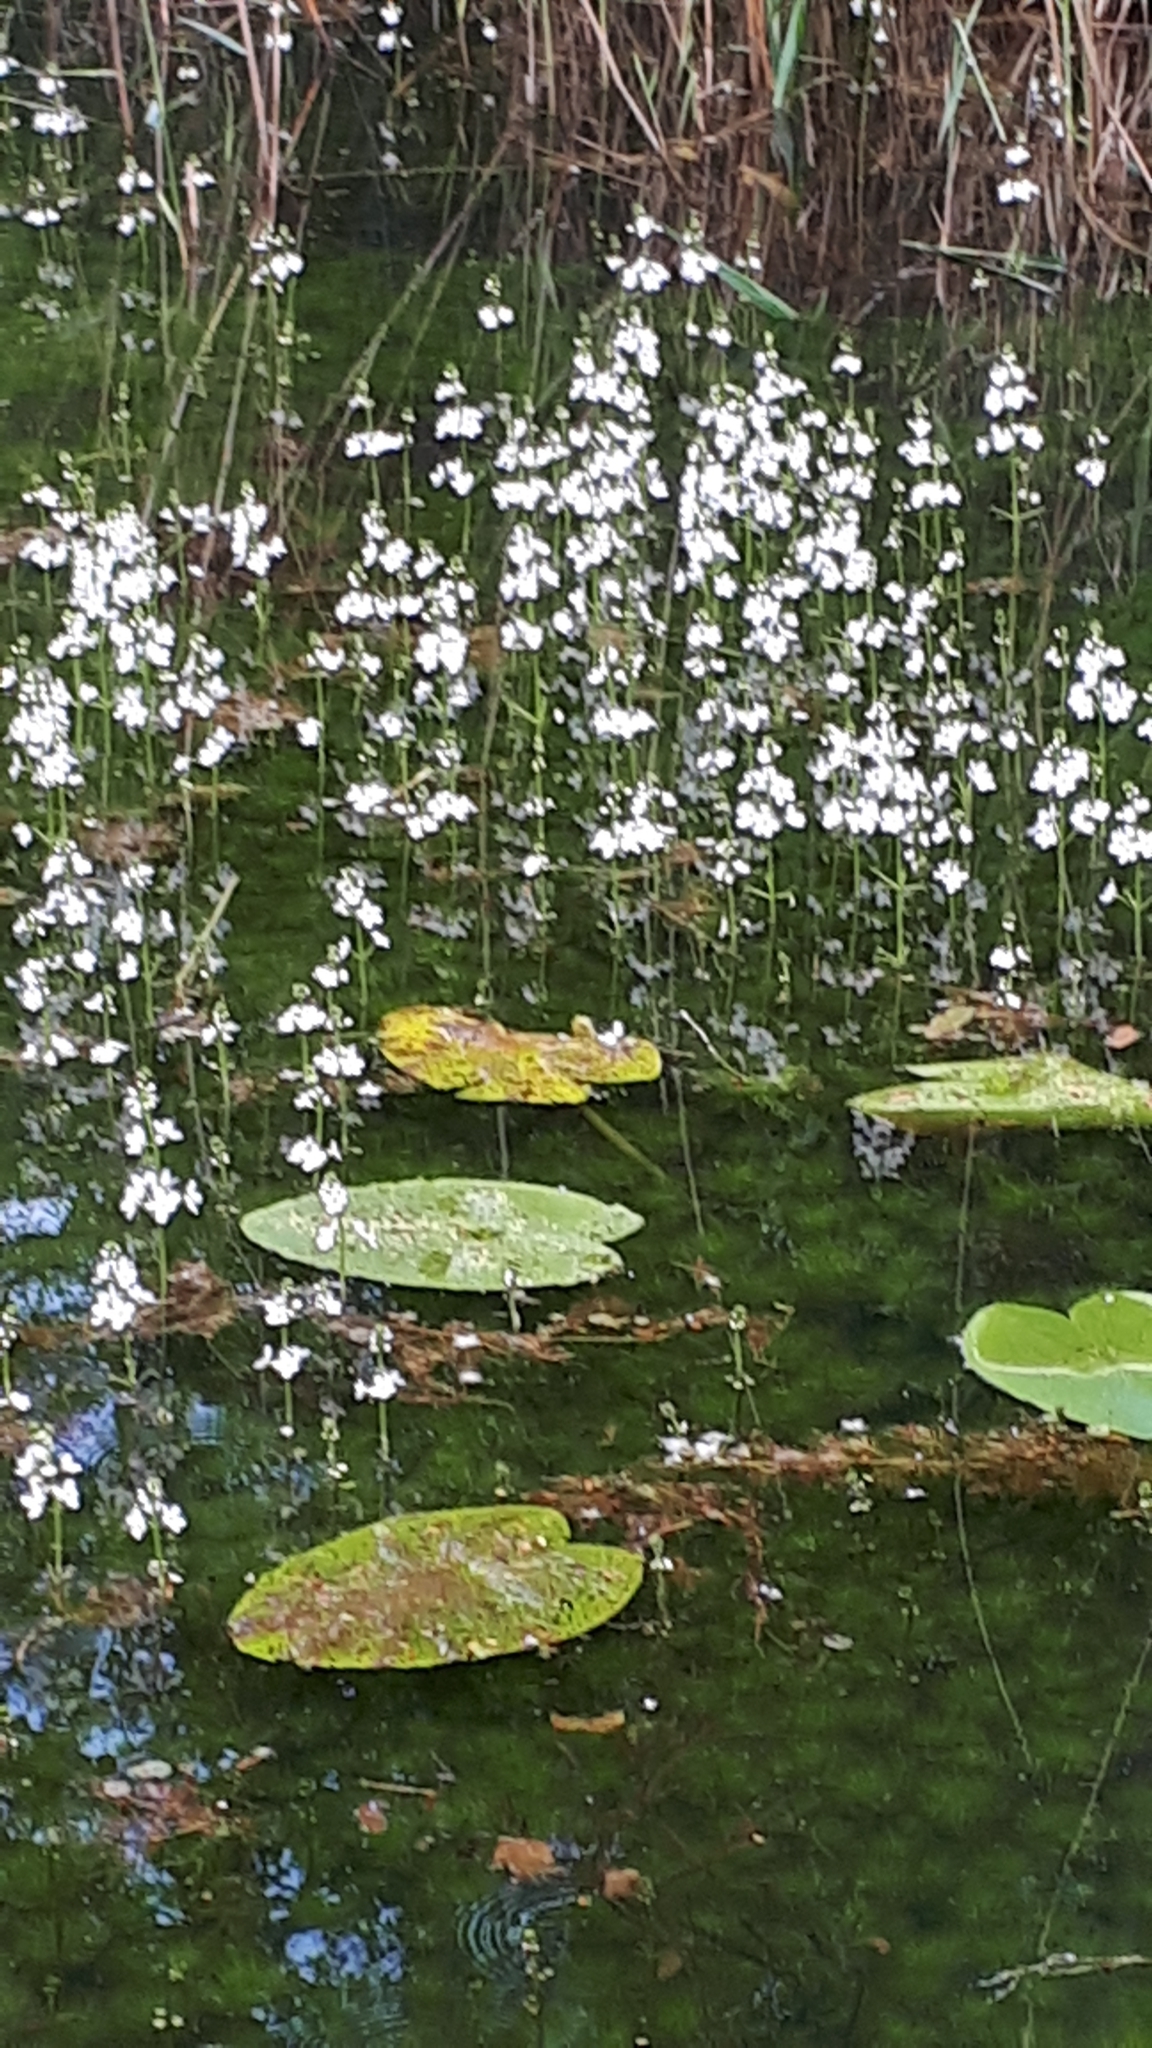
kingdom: Plantae
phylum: Tracheophyta
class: Magnoliopsida
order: Ericales
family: Primulaceae
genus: Hottonia
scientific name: Hottonia palustris
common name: Water-violet
